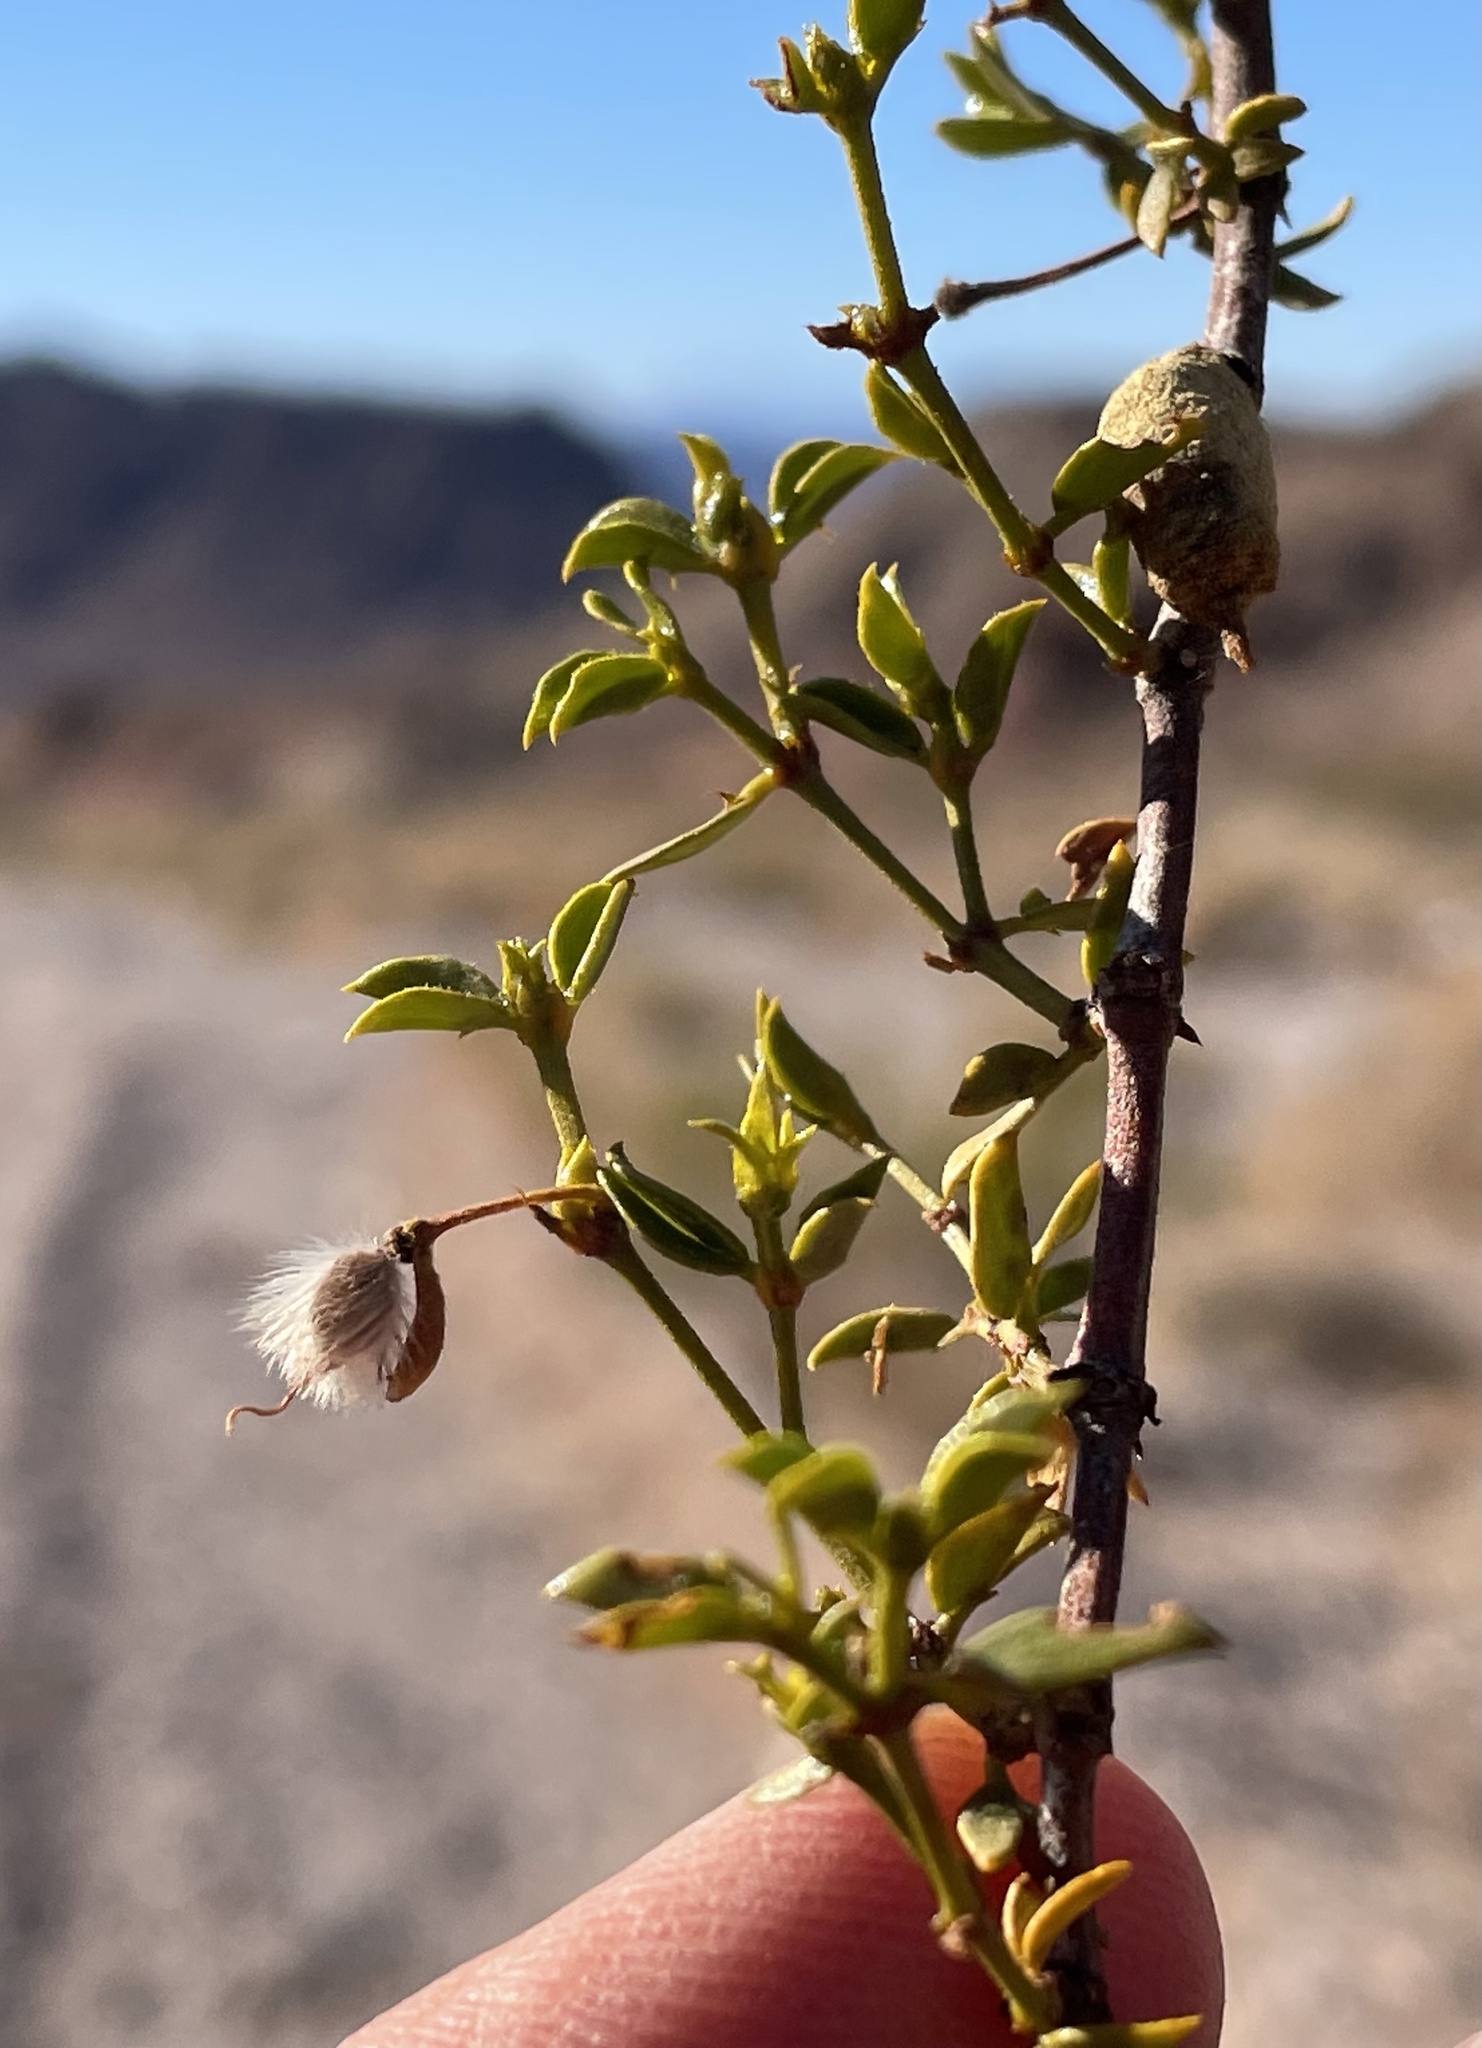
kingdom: Plantae
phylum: Tracheophyta
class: Magnoliopsida
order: Zygophyllales
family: Zygophyllaceae
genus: Larrea
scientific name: Larrea tridentata
